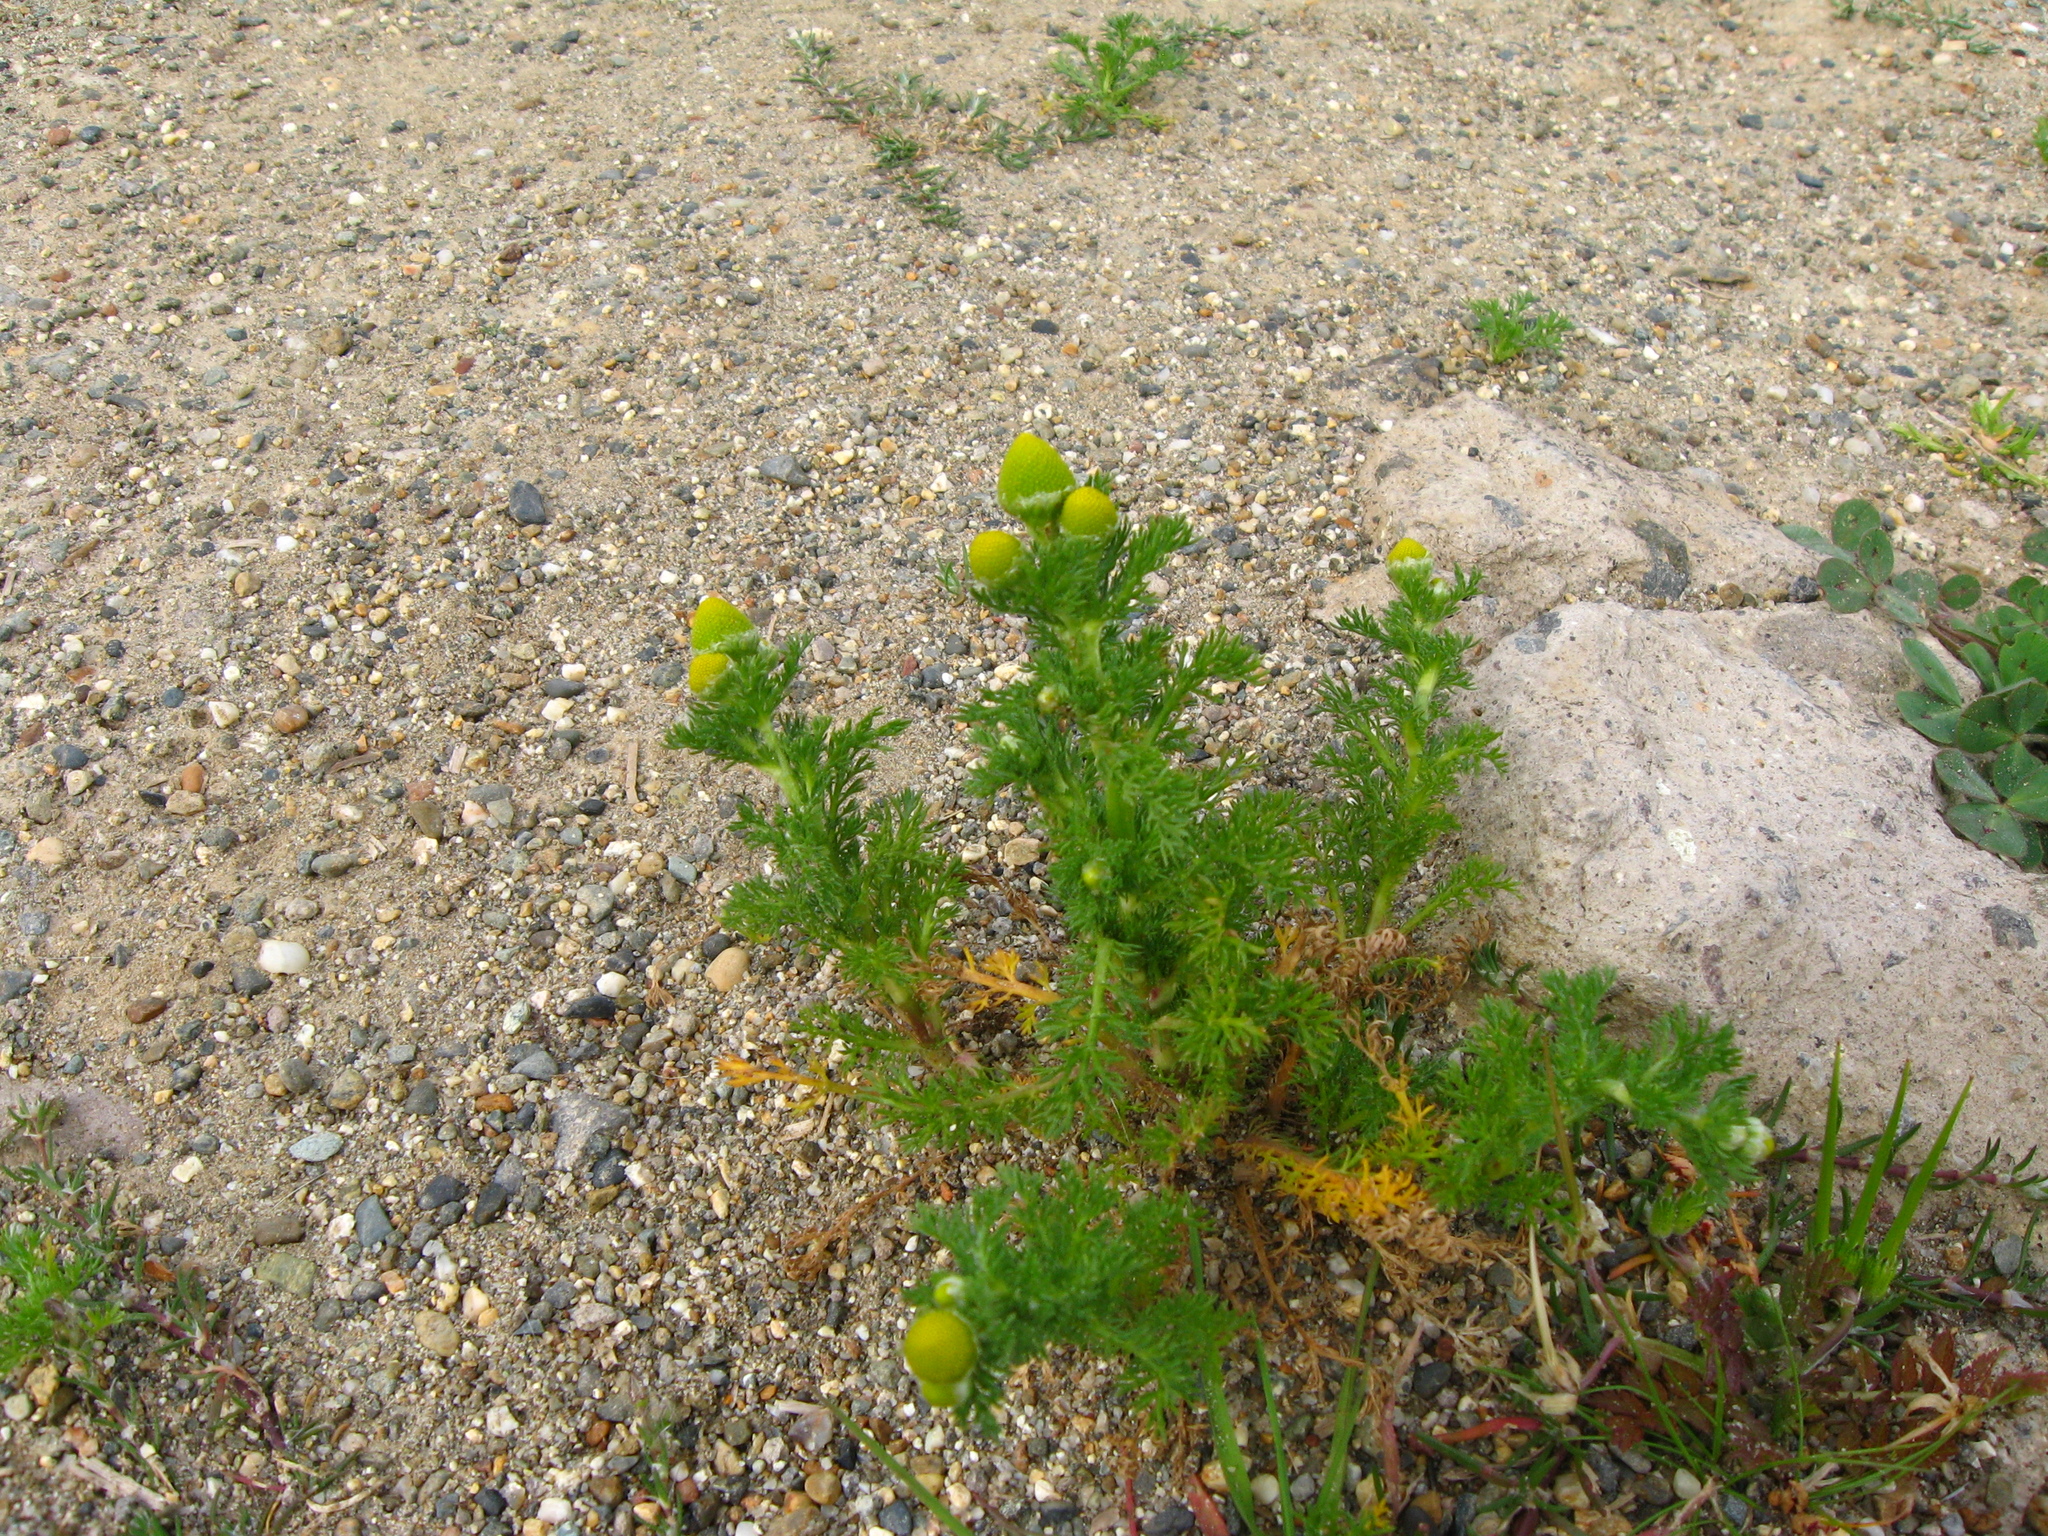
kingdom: Plantae
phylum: Tracheophyta
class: Magnoliopsida
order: Asterales
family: Asteraceae
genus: Matricaria
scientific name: Matricaria discoidea
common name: Disc mayweed
